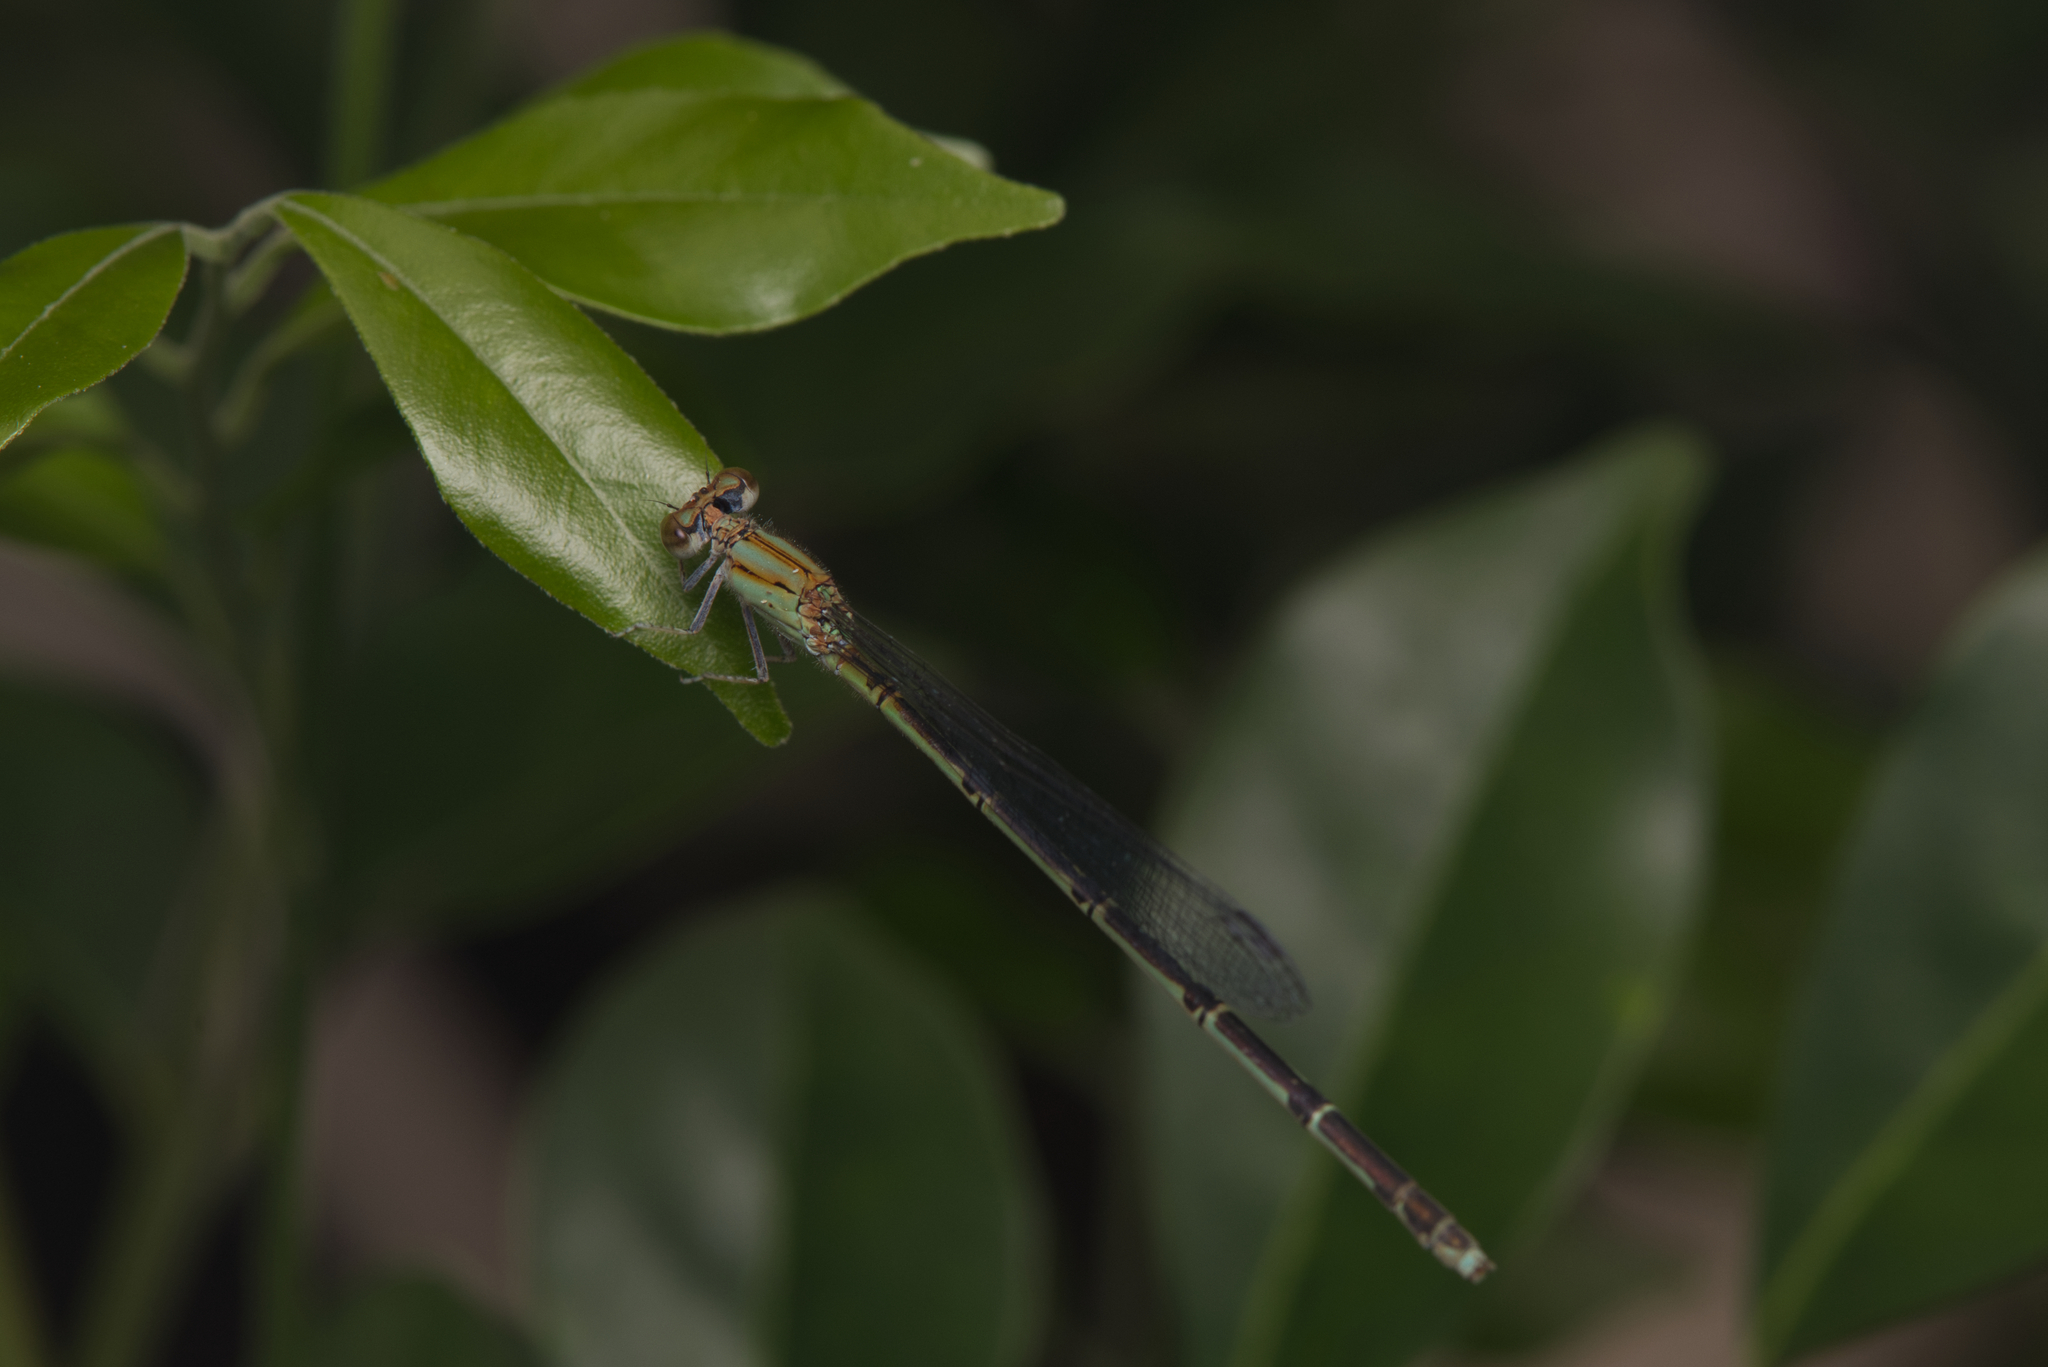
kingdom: Animalia
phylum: Arthropoda
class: Insecta
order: Odonata
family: Coenagrionidae
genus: Pseudagrion
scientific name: Pseudagrion microcephalum
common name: Blue riverdamsel
